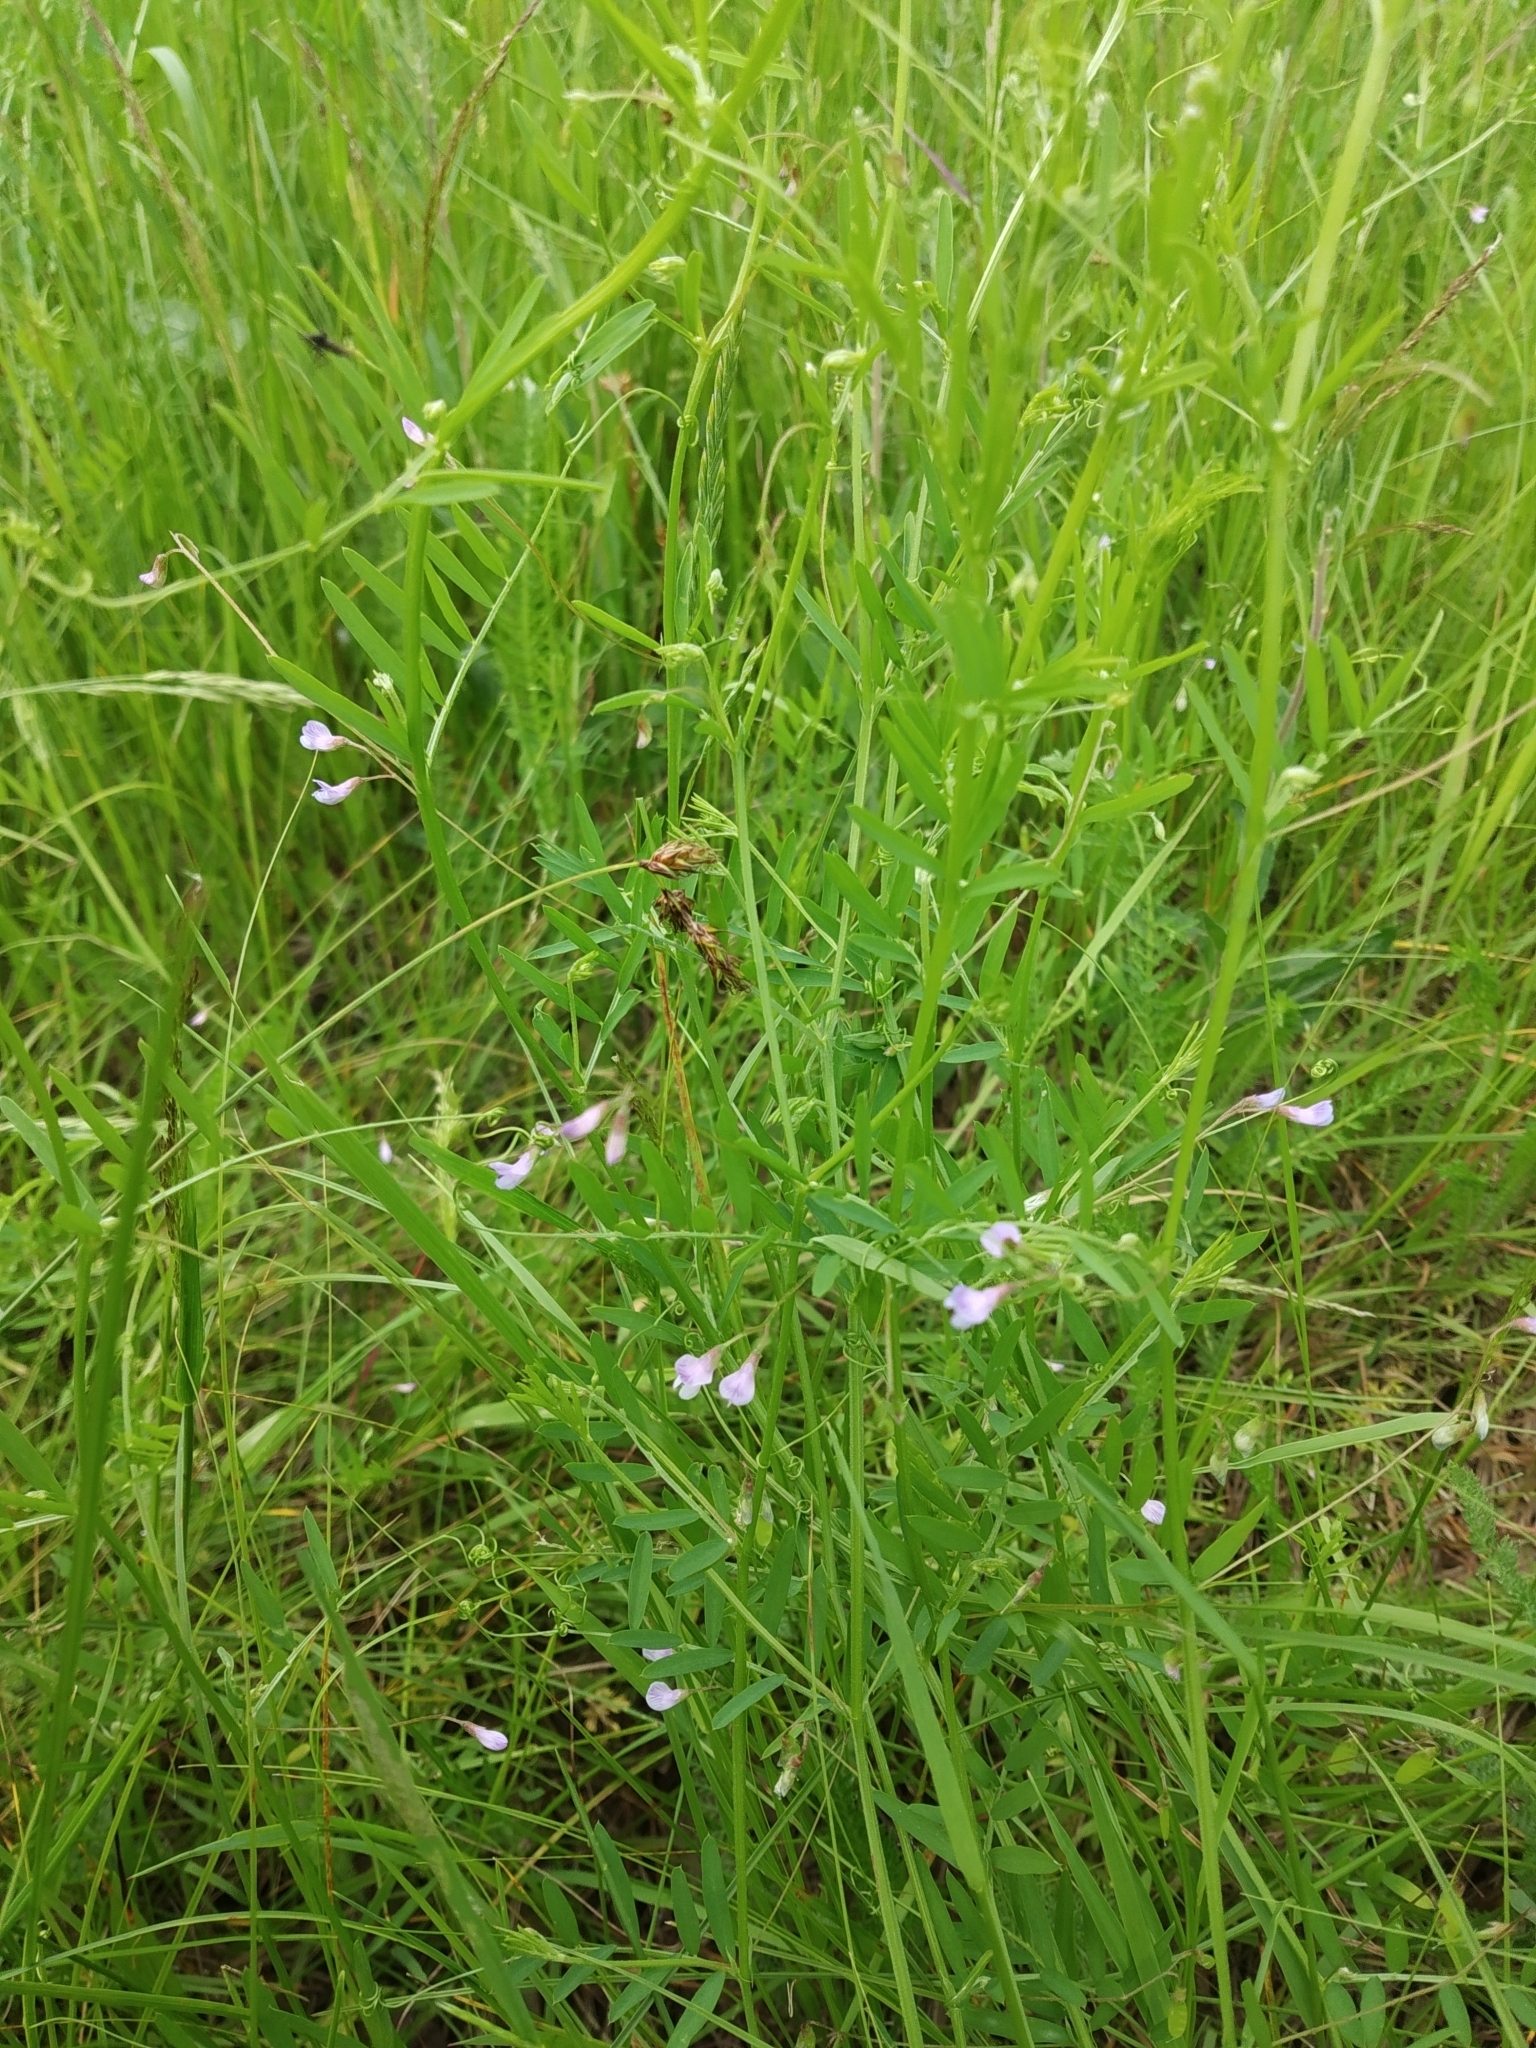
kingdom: Plantae
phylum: Tracheophyta
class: Magnoliopsida
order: Fabales
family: Fabaceae
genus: Vicia
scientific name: Vicia tetrasperma
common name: Smooth tare
